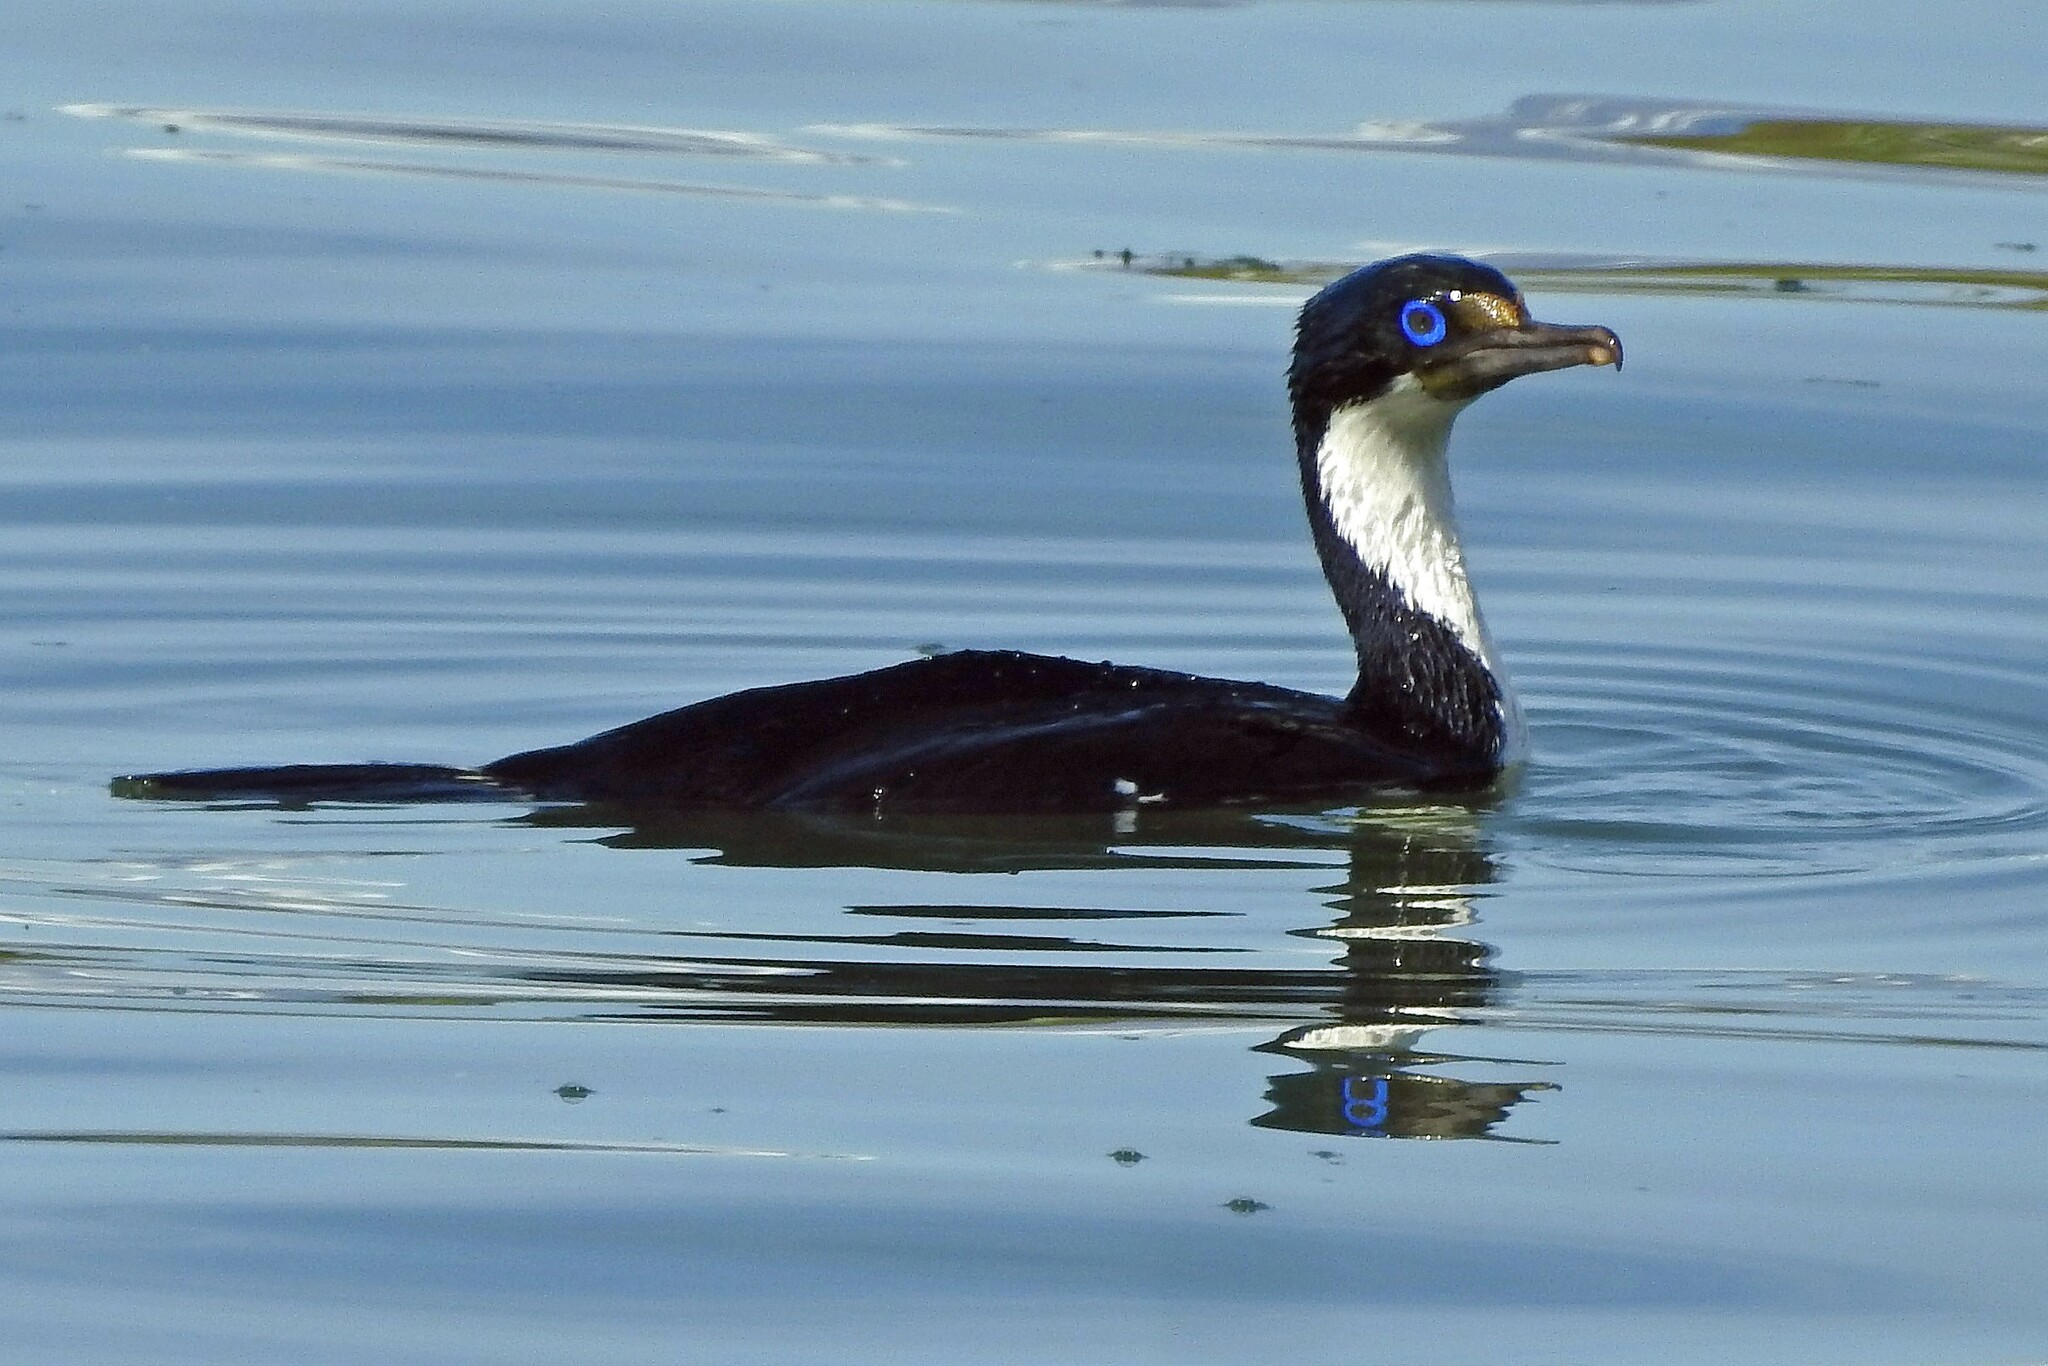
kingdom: Animalia
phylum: Chordata
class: Aves
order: Suliformes
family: Phalacrocoracidae
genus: Leucocarbo
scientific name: Leucocarbo atriceps
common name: Imperial shag
